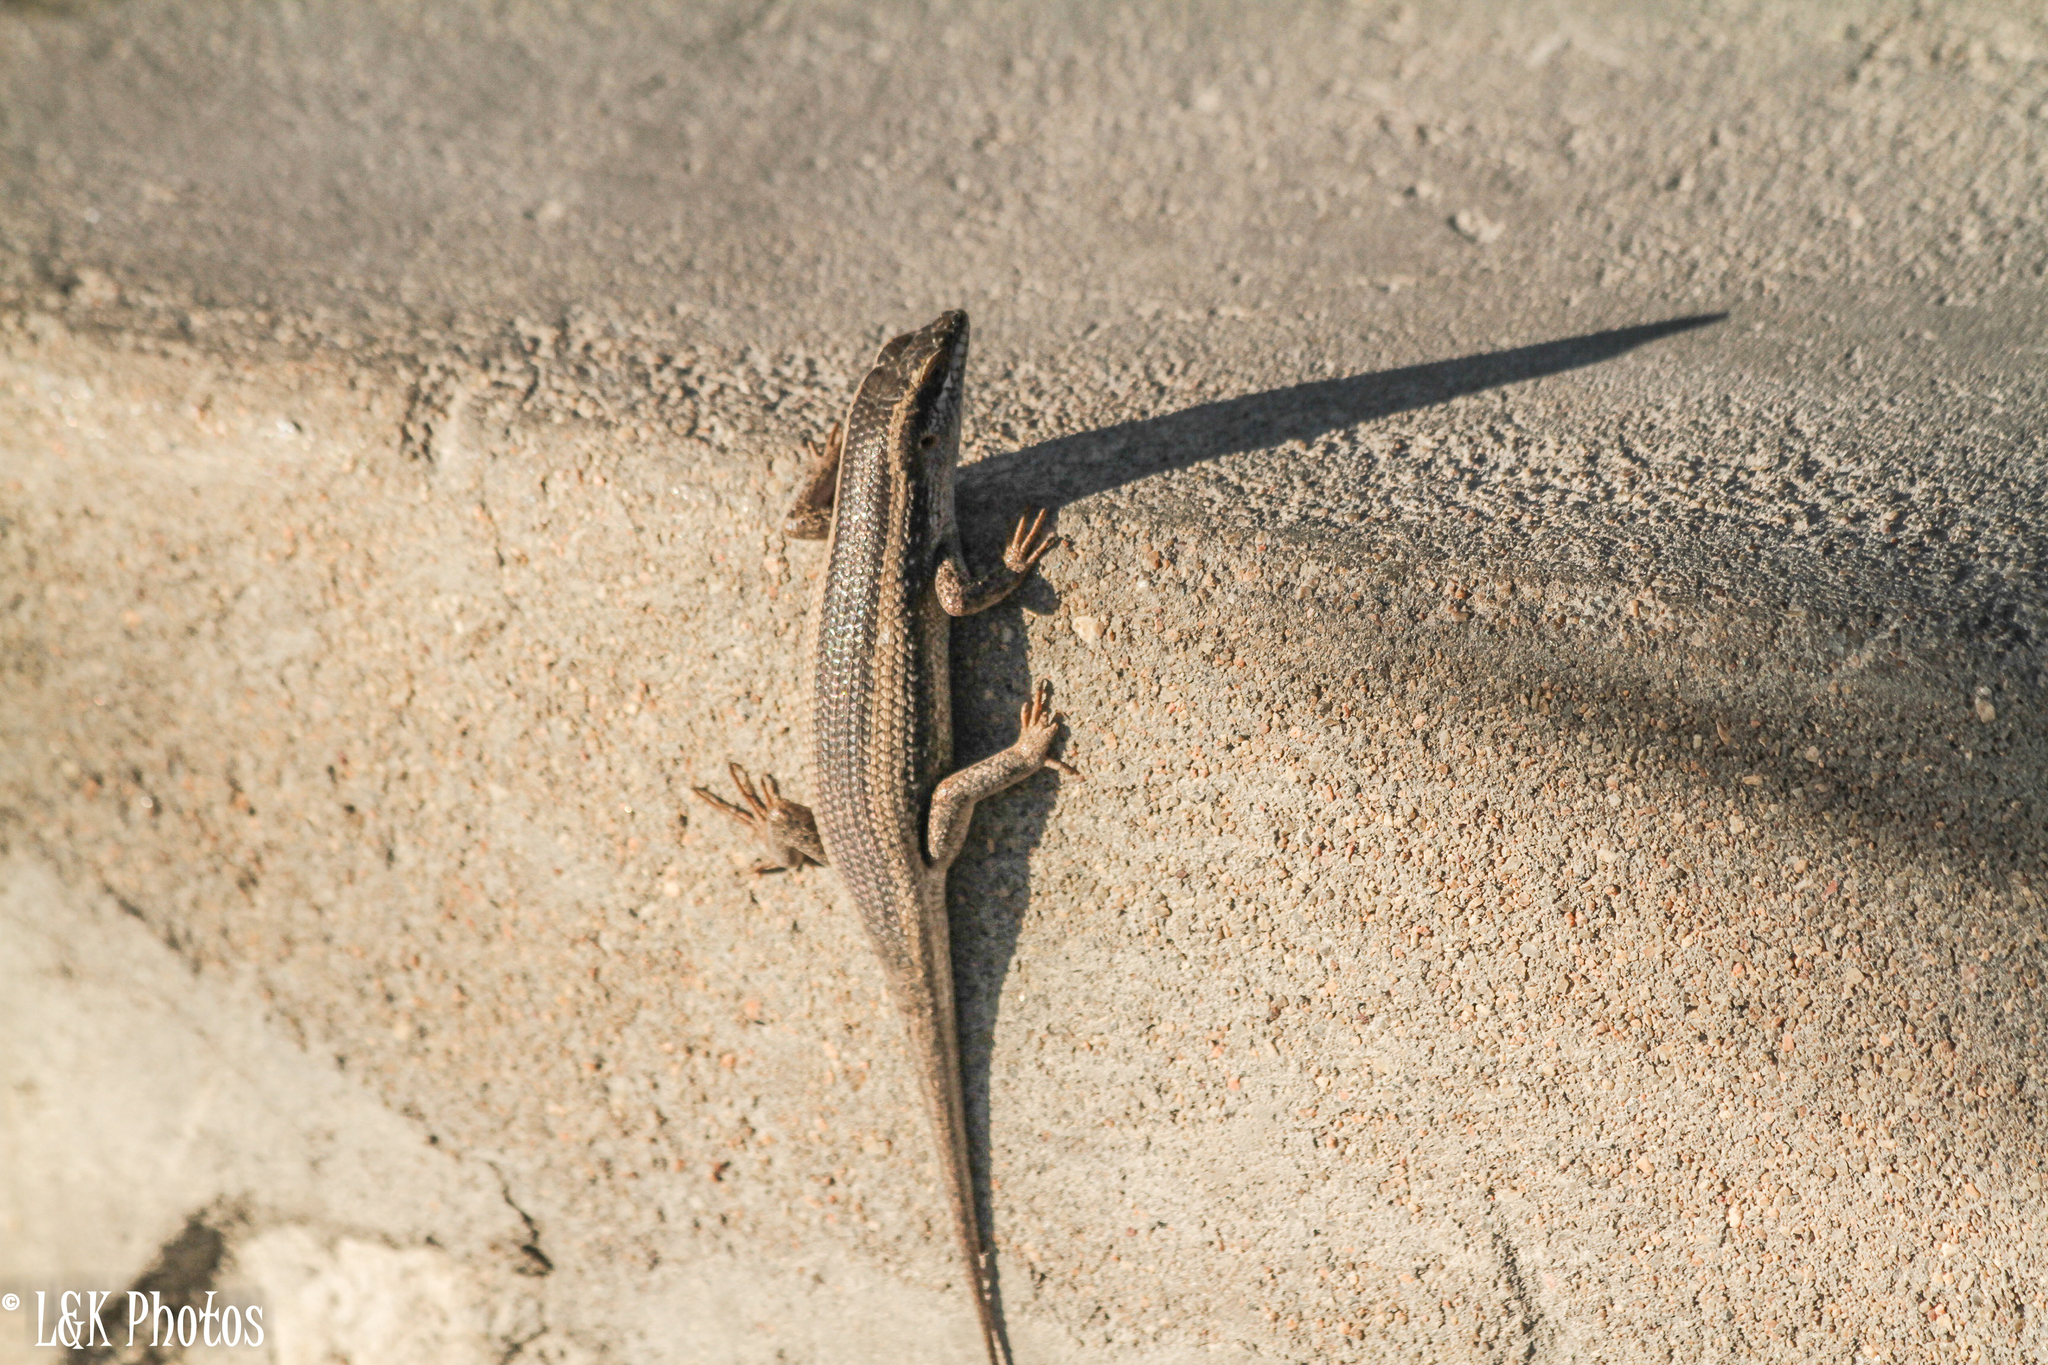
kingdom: Animalia
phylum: Chordata
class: Squamata
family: Scincidae
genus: Trachylepis
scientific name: Trachylepis spilogaster
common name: Kalahari tree skink
